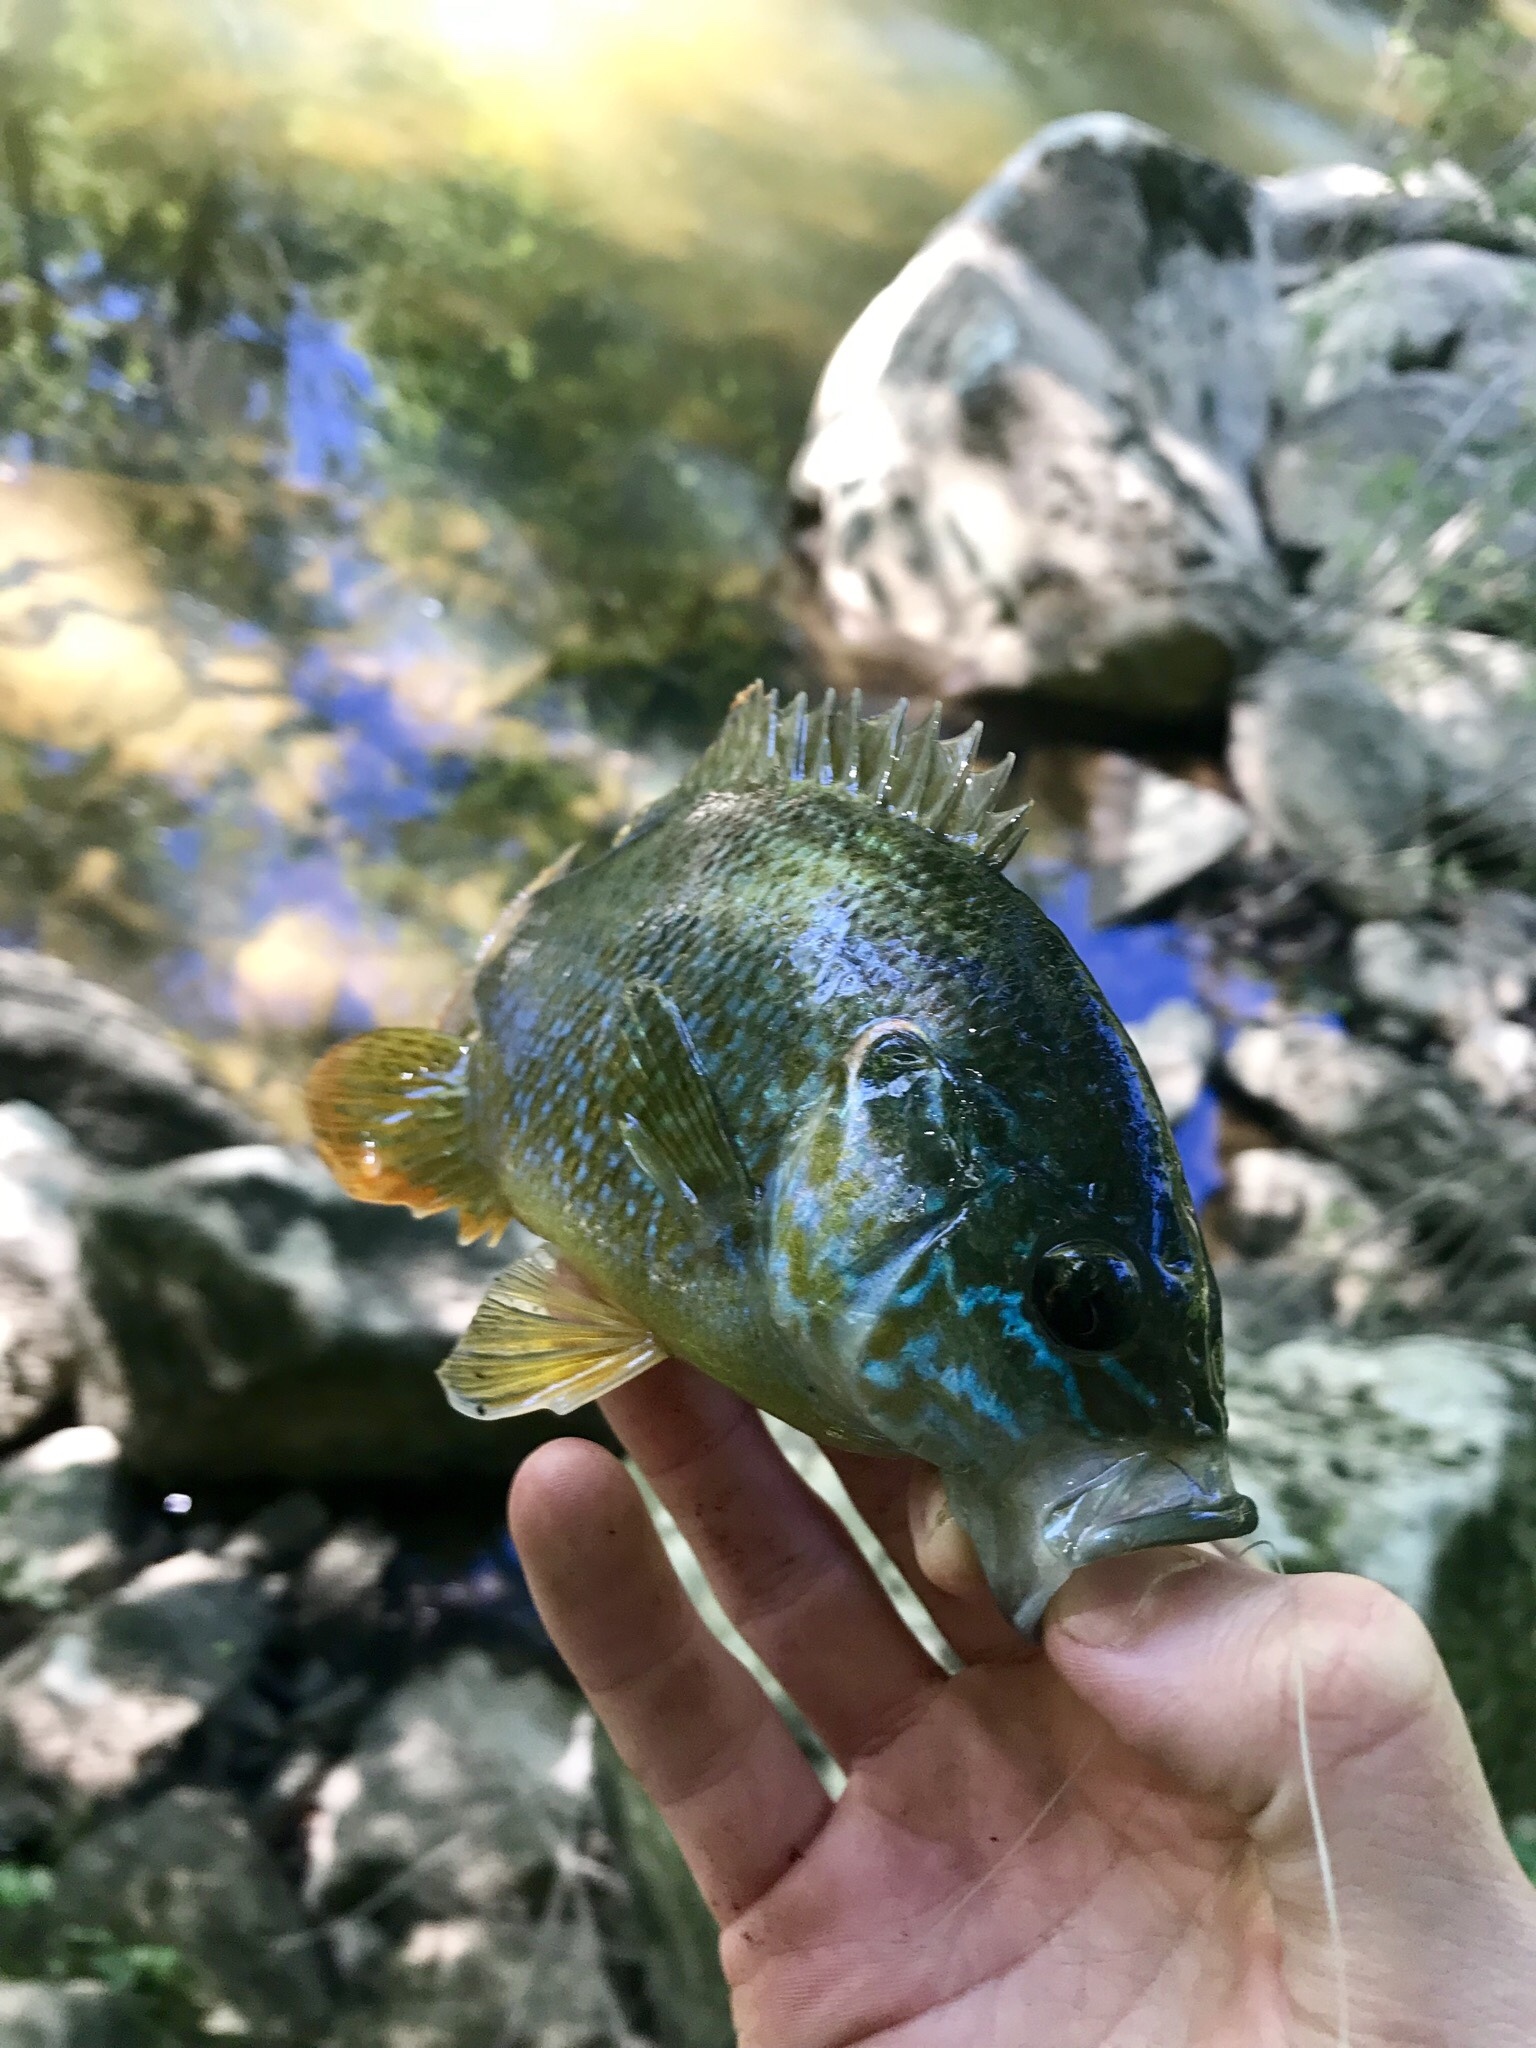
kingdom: Animalia
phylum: Chordata
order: Perciformes
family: Centrarchidae
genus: Lepomis
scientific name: Lepomis cyanellus
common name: Green sunfish
